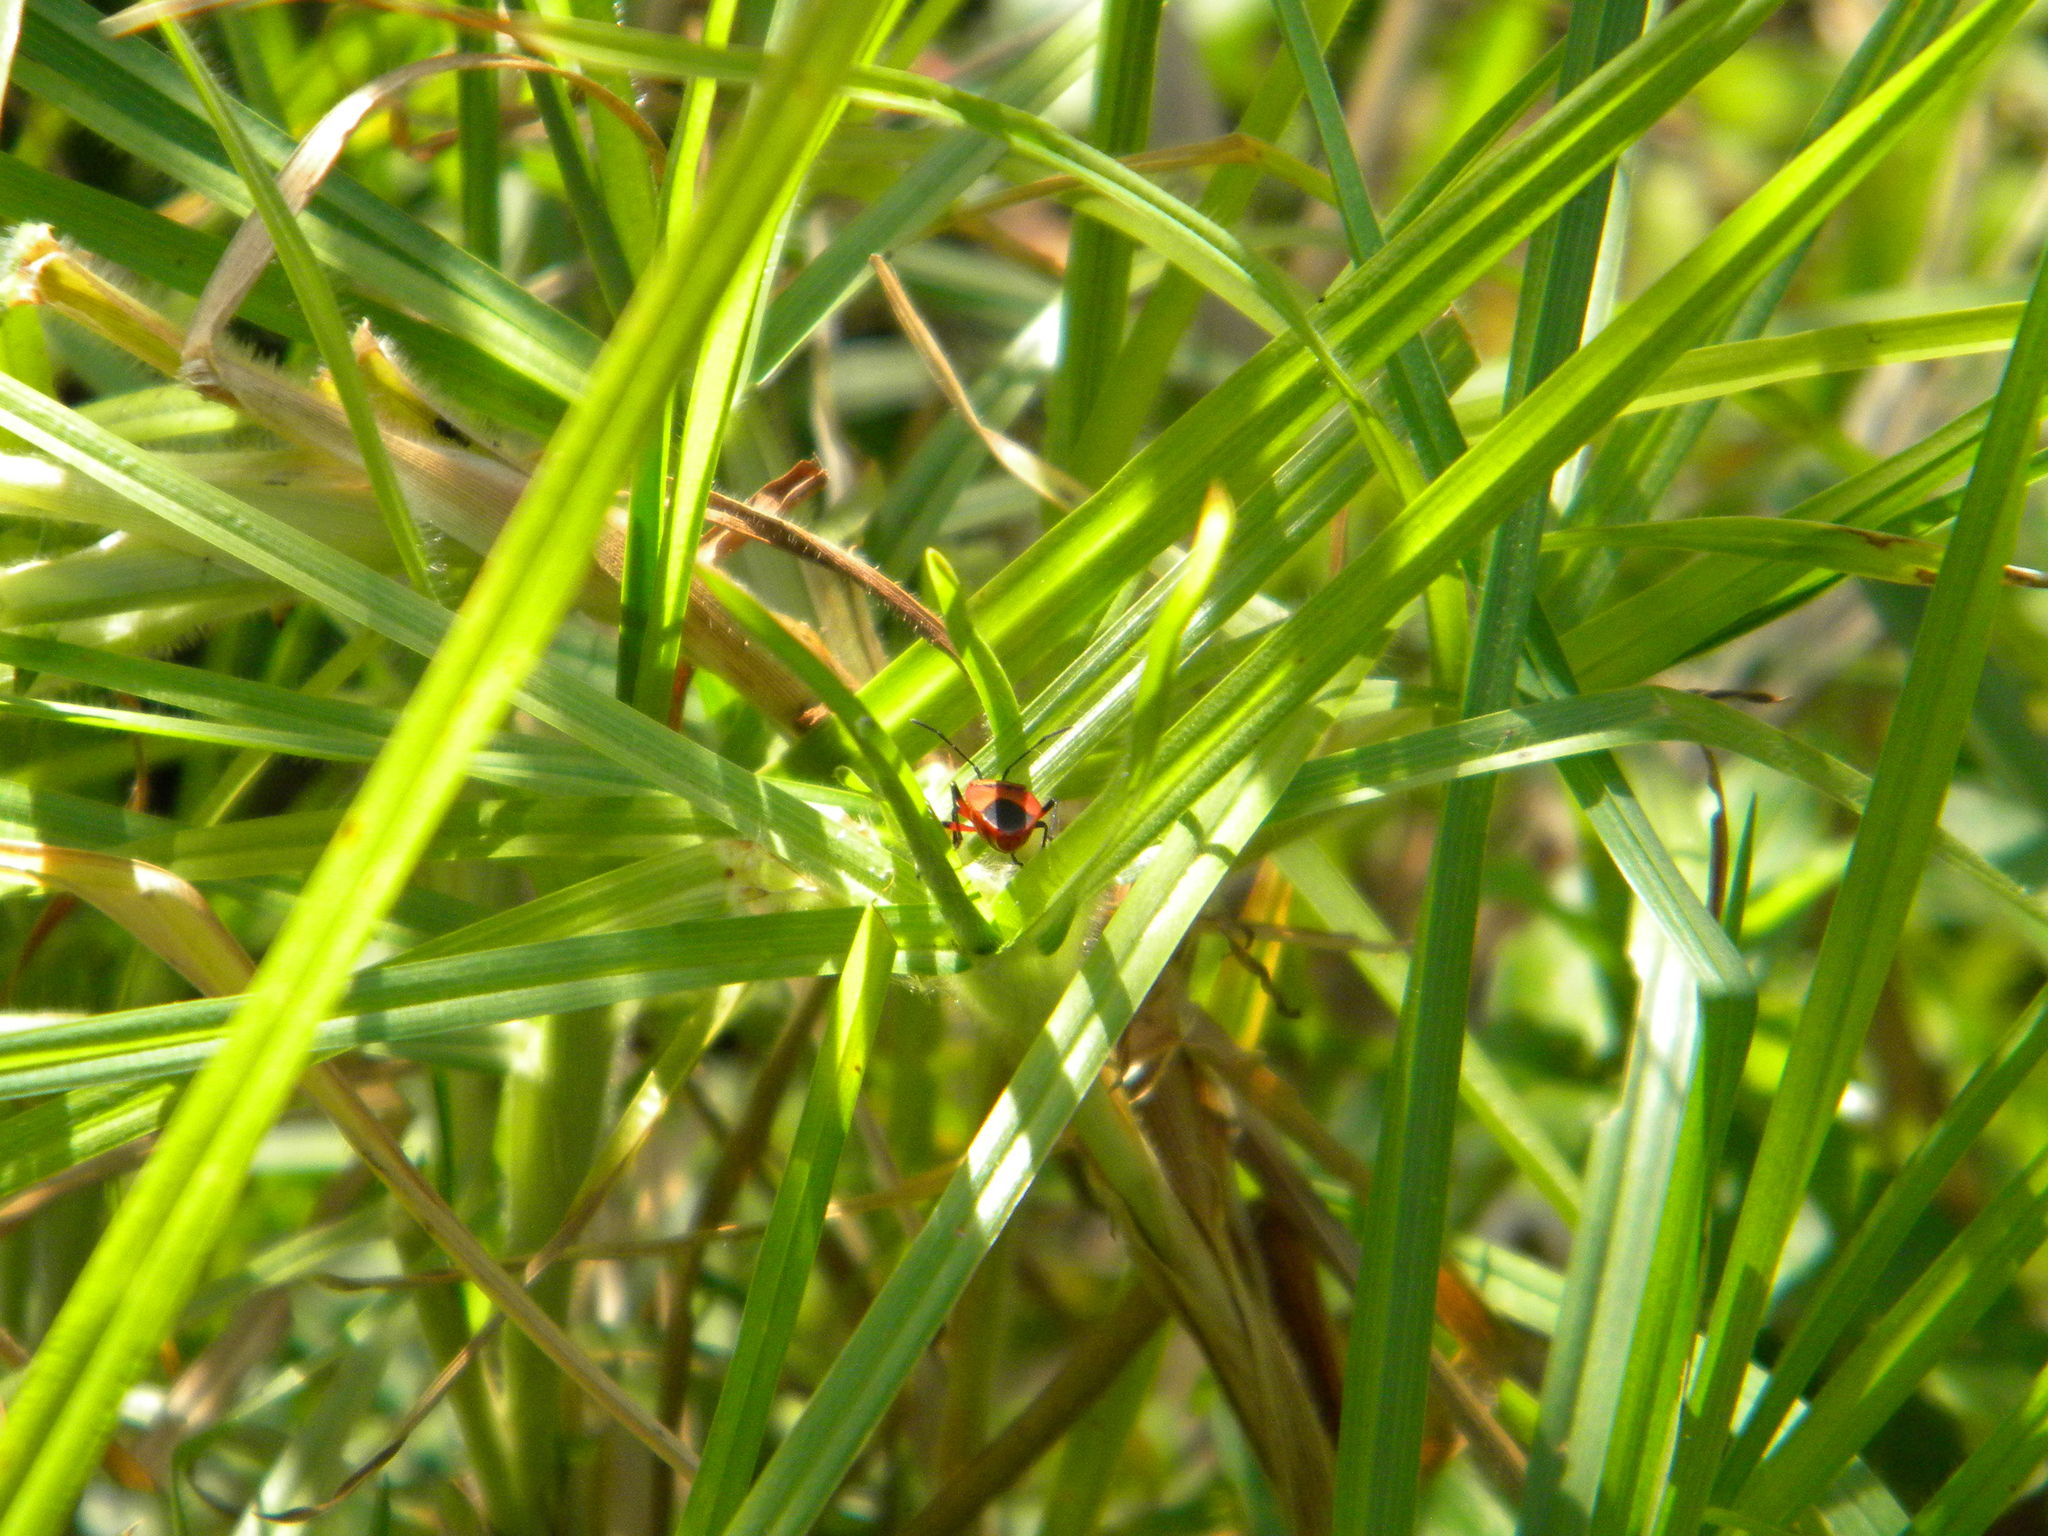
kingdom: Animalia
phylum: Arthropoda
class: Insecta
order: Hemiptera
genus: Cenaeus
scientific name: Cenaeus
